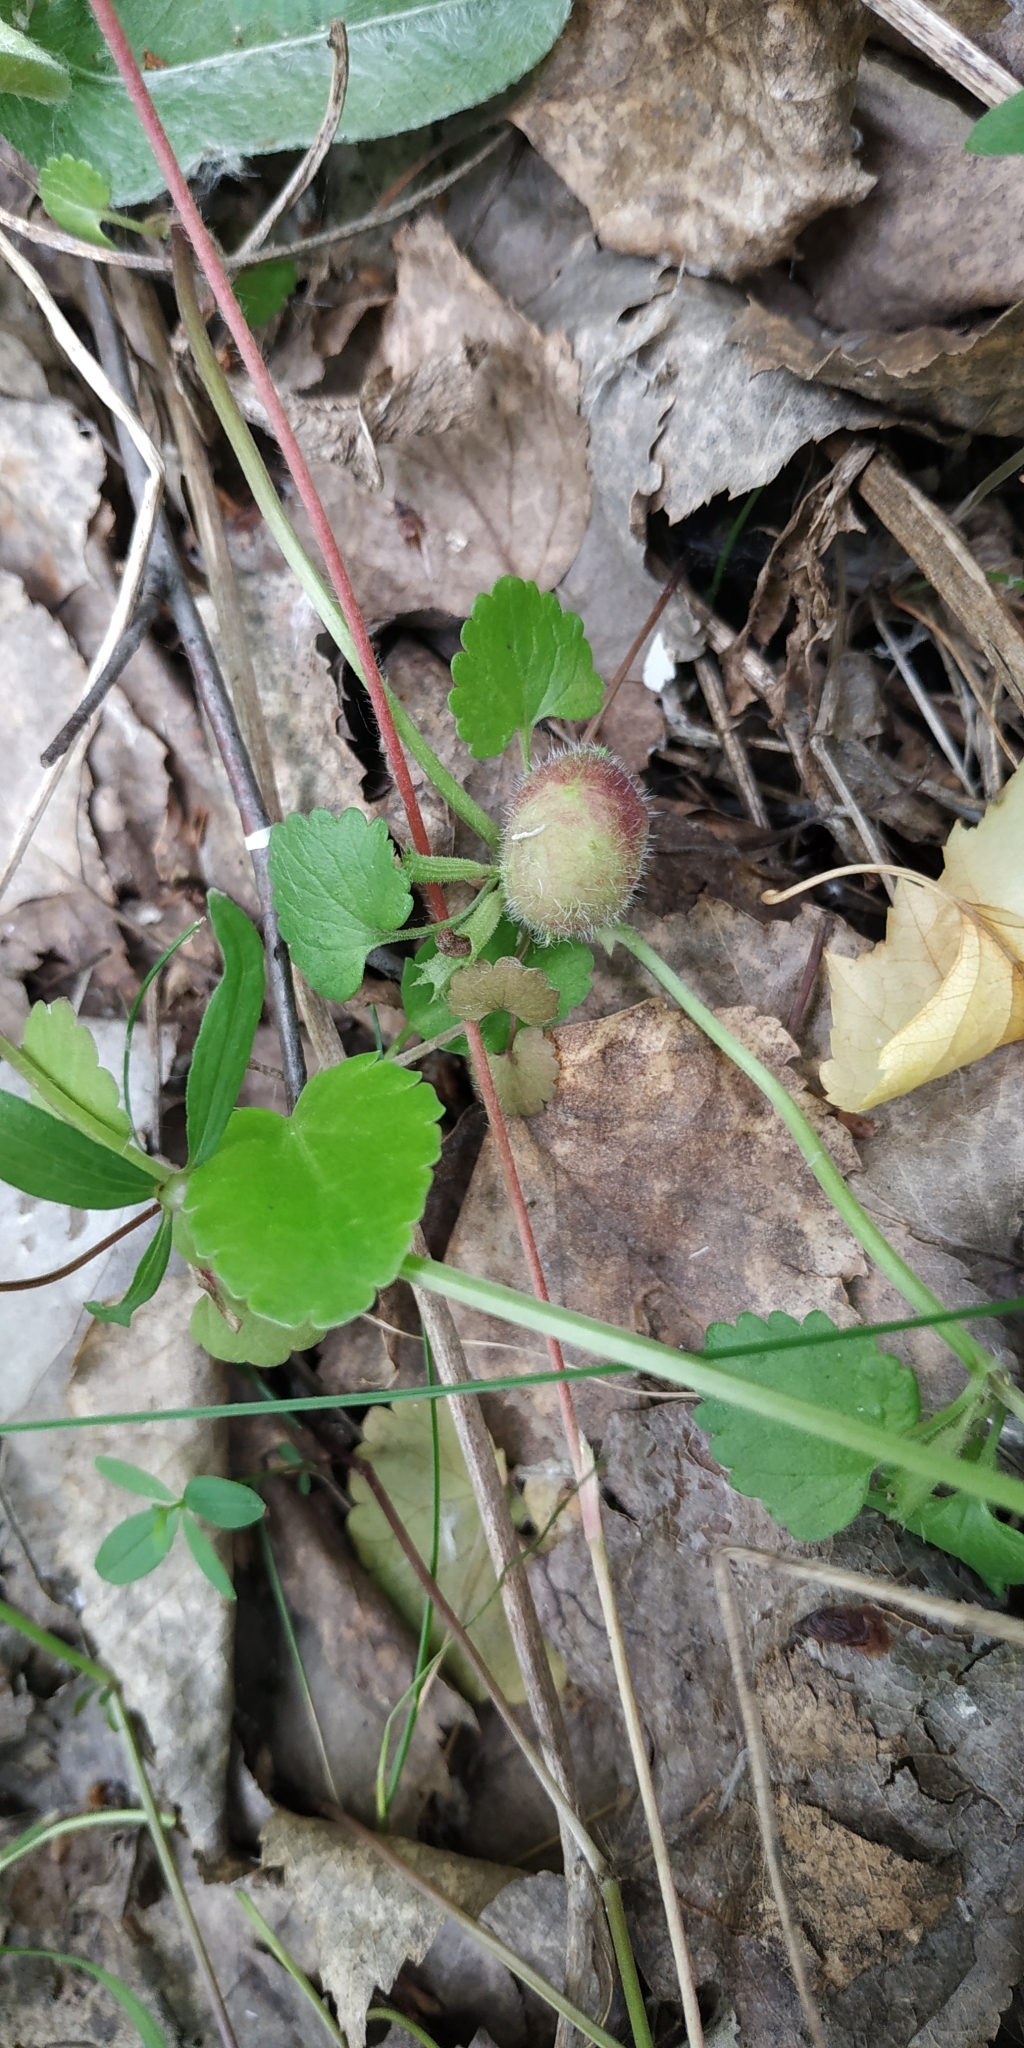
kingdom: Plantae
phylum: Tracheophyta
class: Magnoliopsida
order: Lamiales
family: Lamiaceae
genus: Glechoma
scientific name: Glechoma hederacea
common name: Ground ivy
